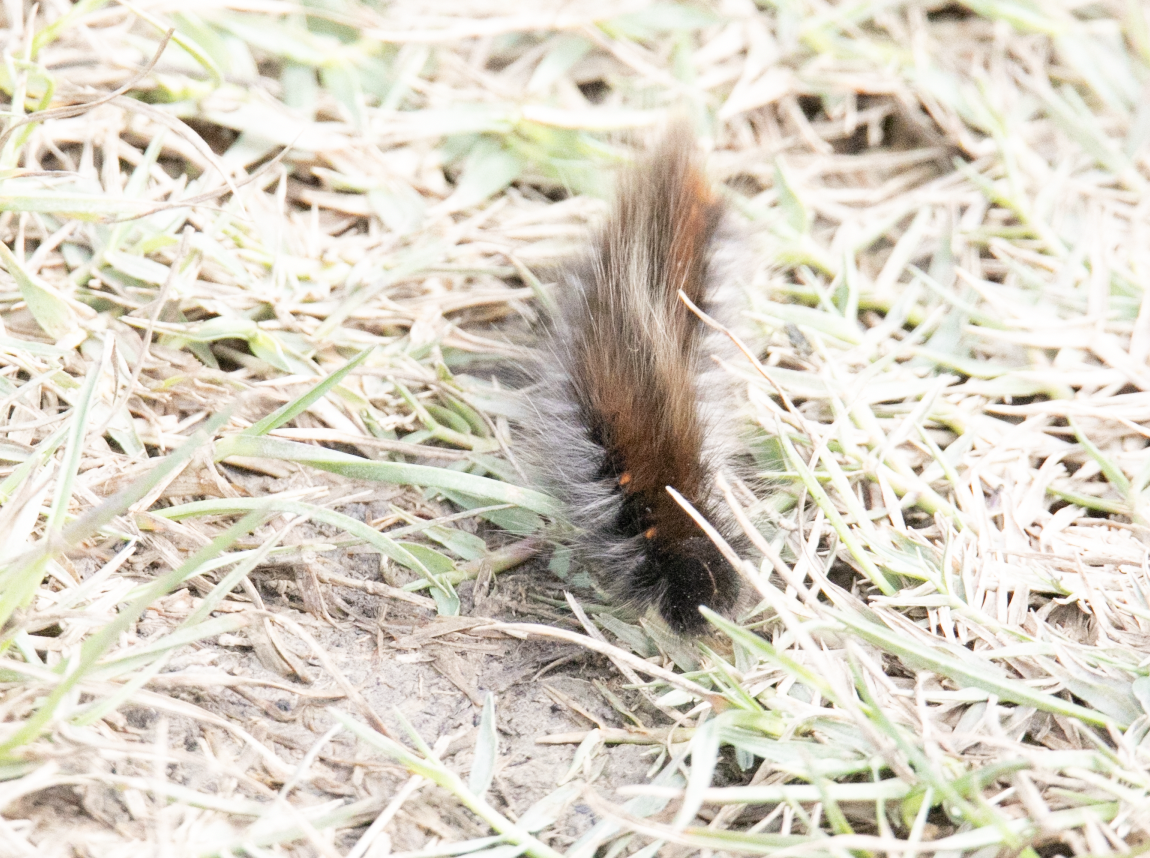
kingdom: Animalia
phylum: Arthropoda
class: Insecta
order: Lepidoptera
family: Lasiocampidae
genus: Macrothylacia
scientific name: Macrothylacia rubi
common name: Fox moth
